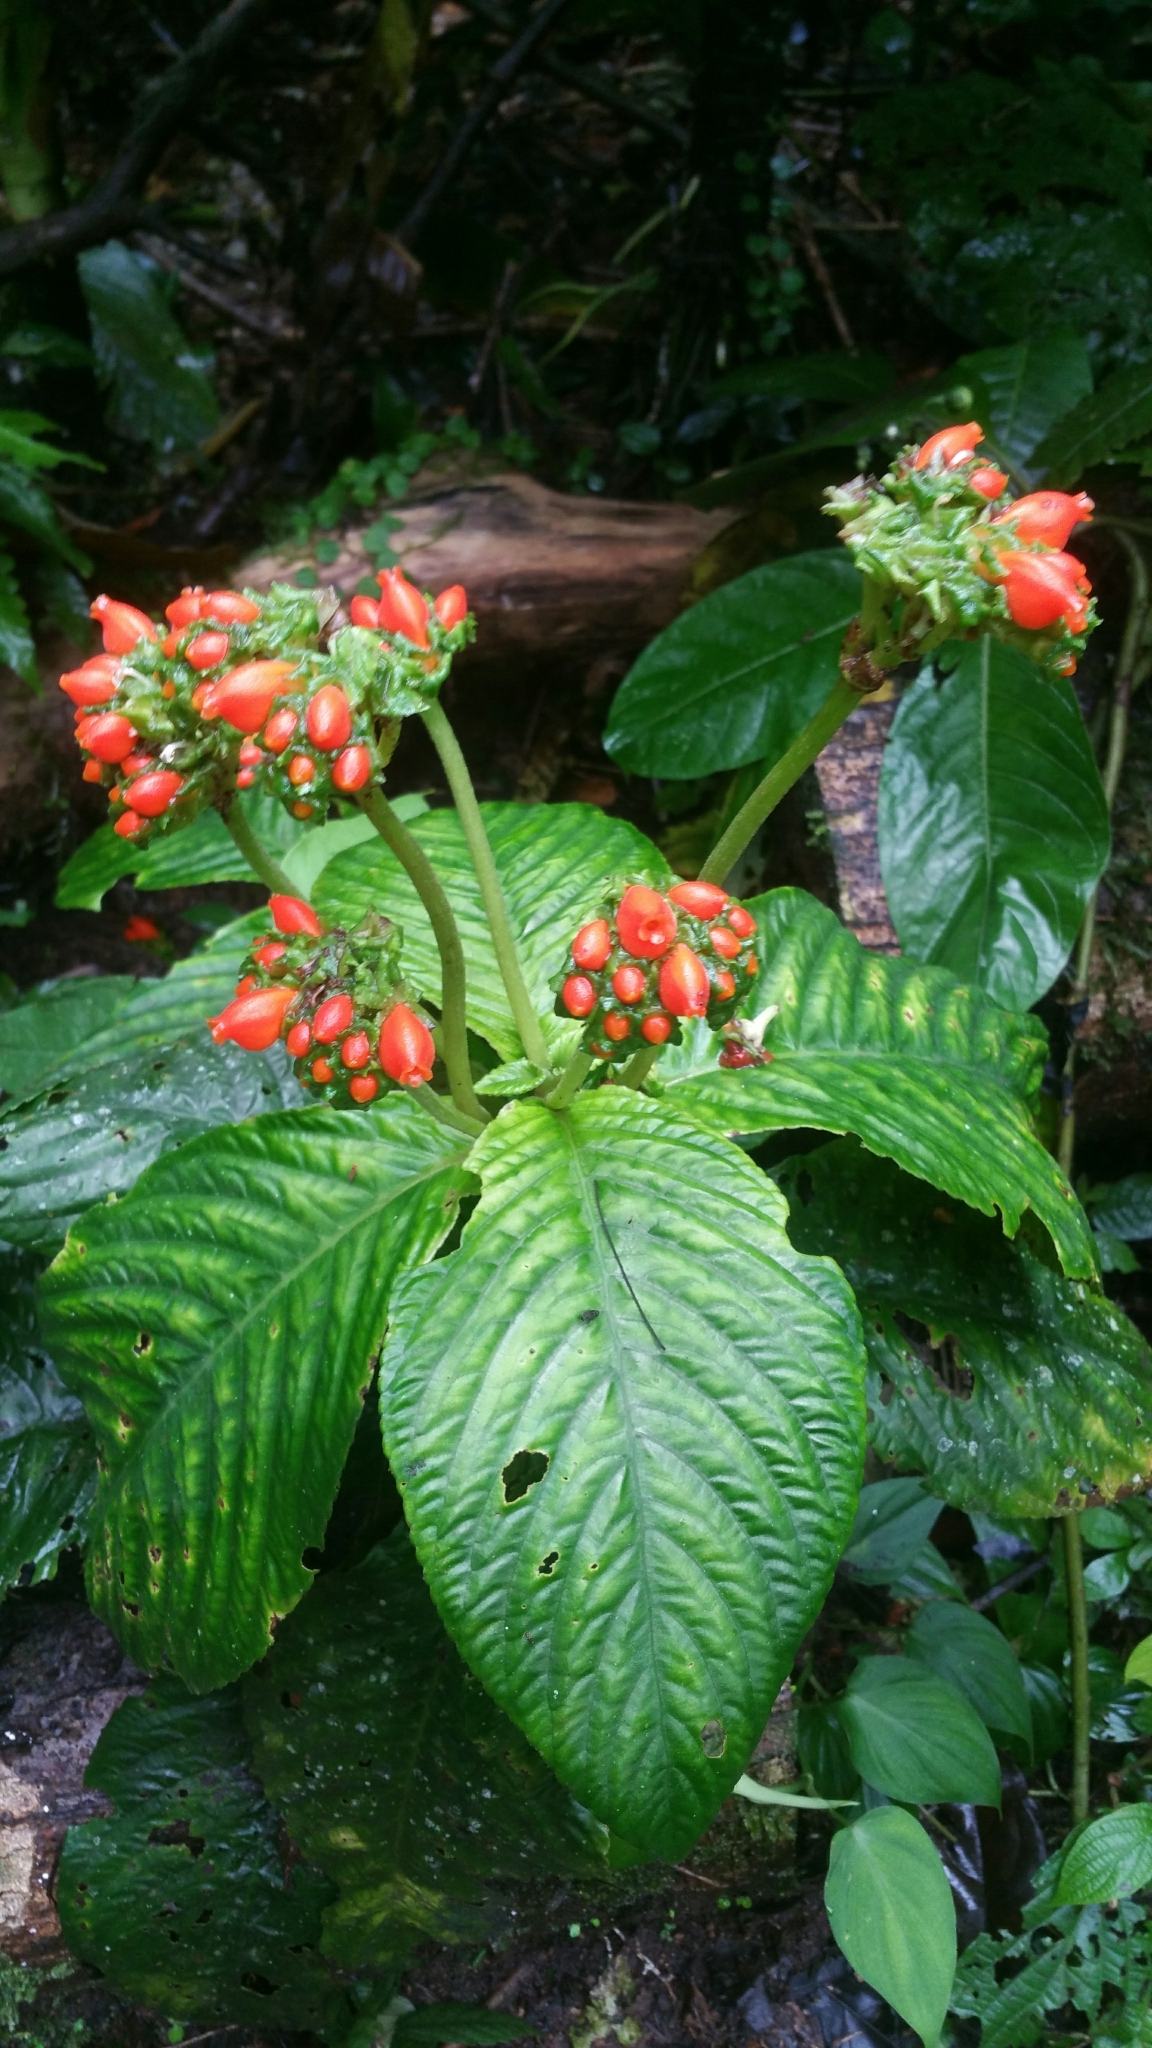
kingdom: Plantae
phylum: Tracheophyta
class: Magnoliopsida
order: Lamiales
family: Gesneriaceae
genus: Gasteranthus
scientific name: Gasteranthus corallinus
